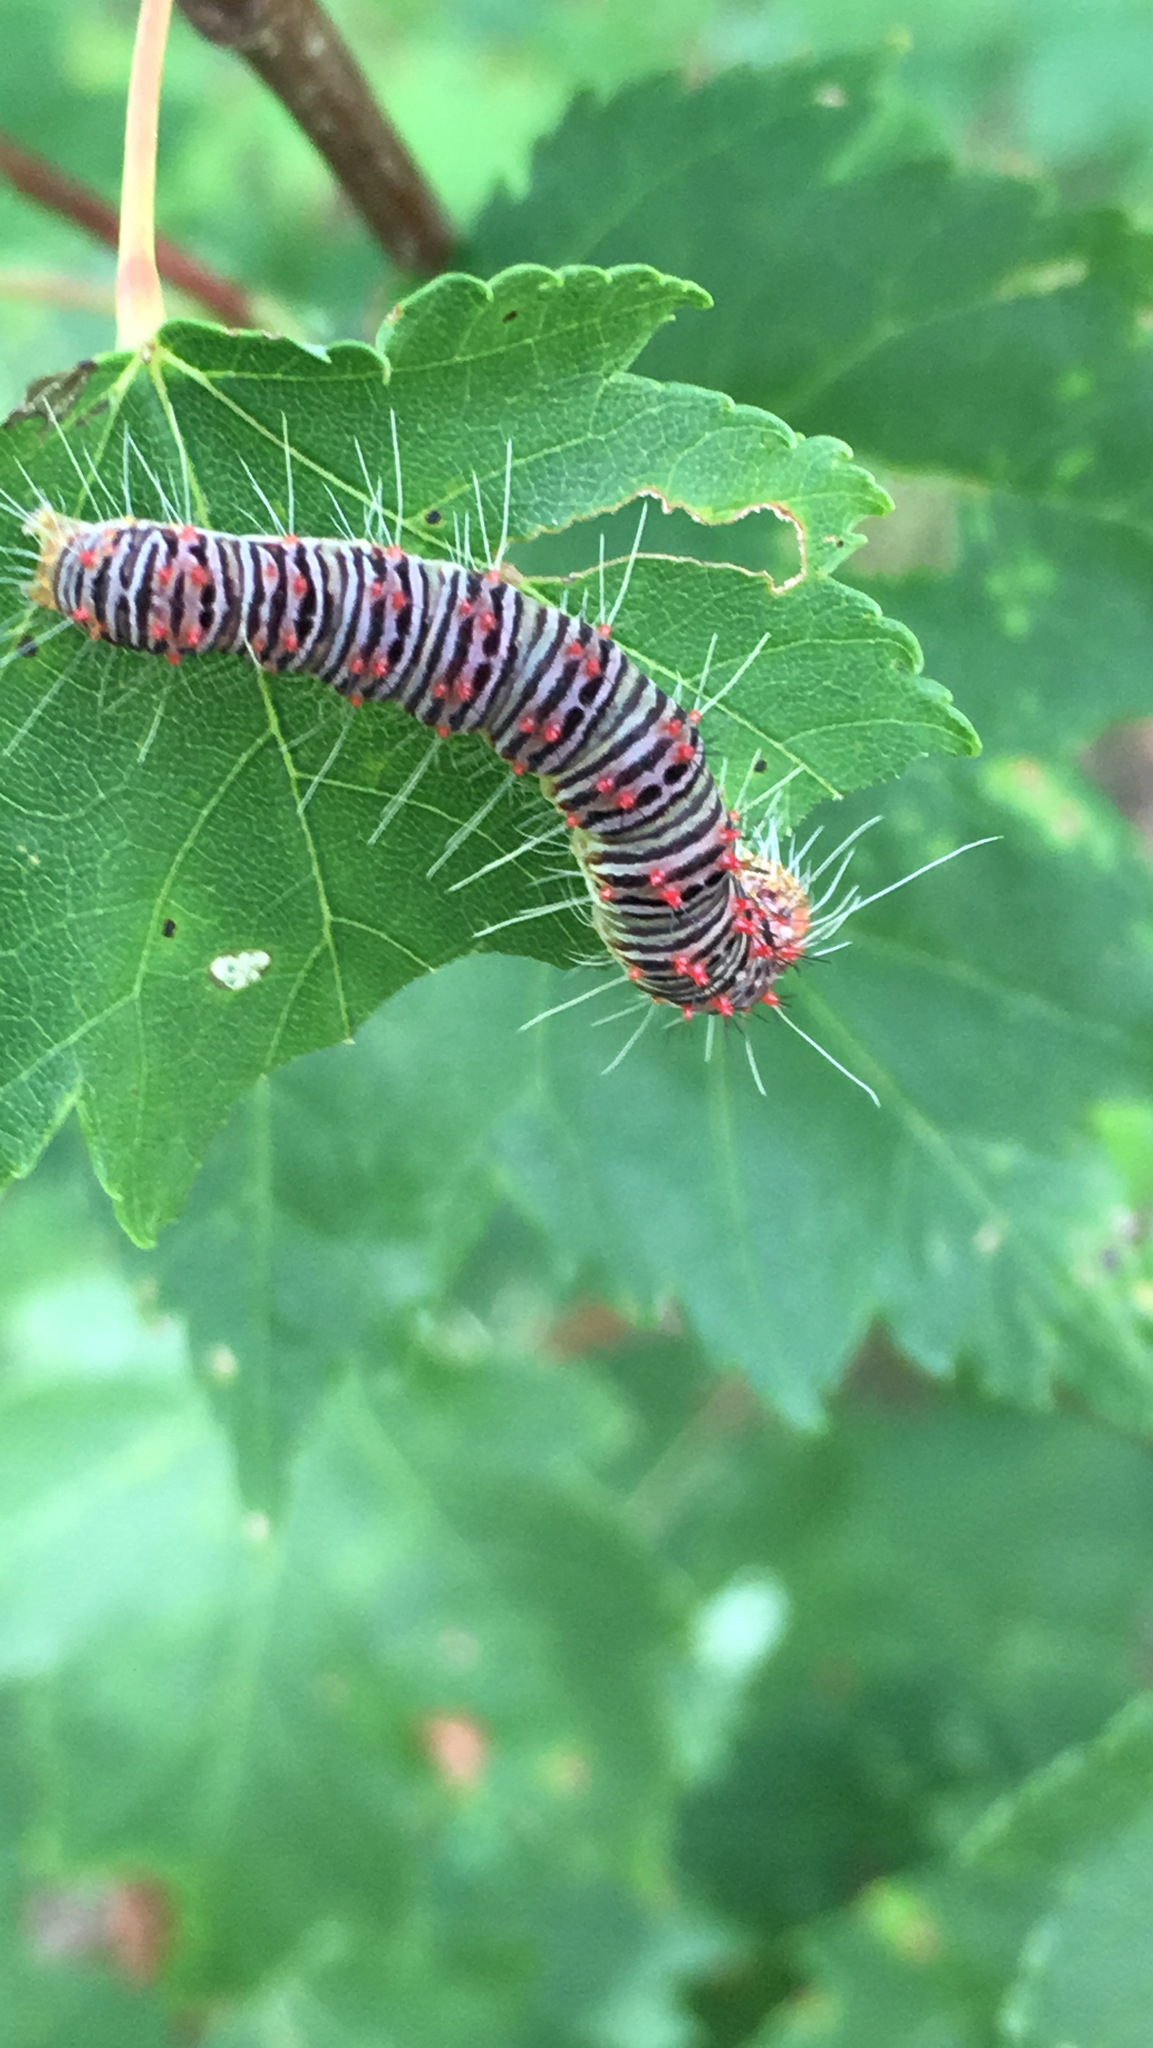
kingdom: Animalia
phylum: Arthropoda
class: Insecta
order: Lepidoptera
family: Noctuidae
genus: Acronicta
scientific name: Acronicta retardata
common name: Maple dagger
